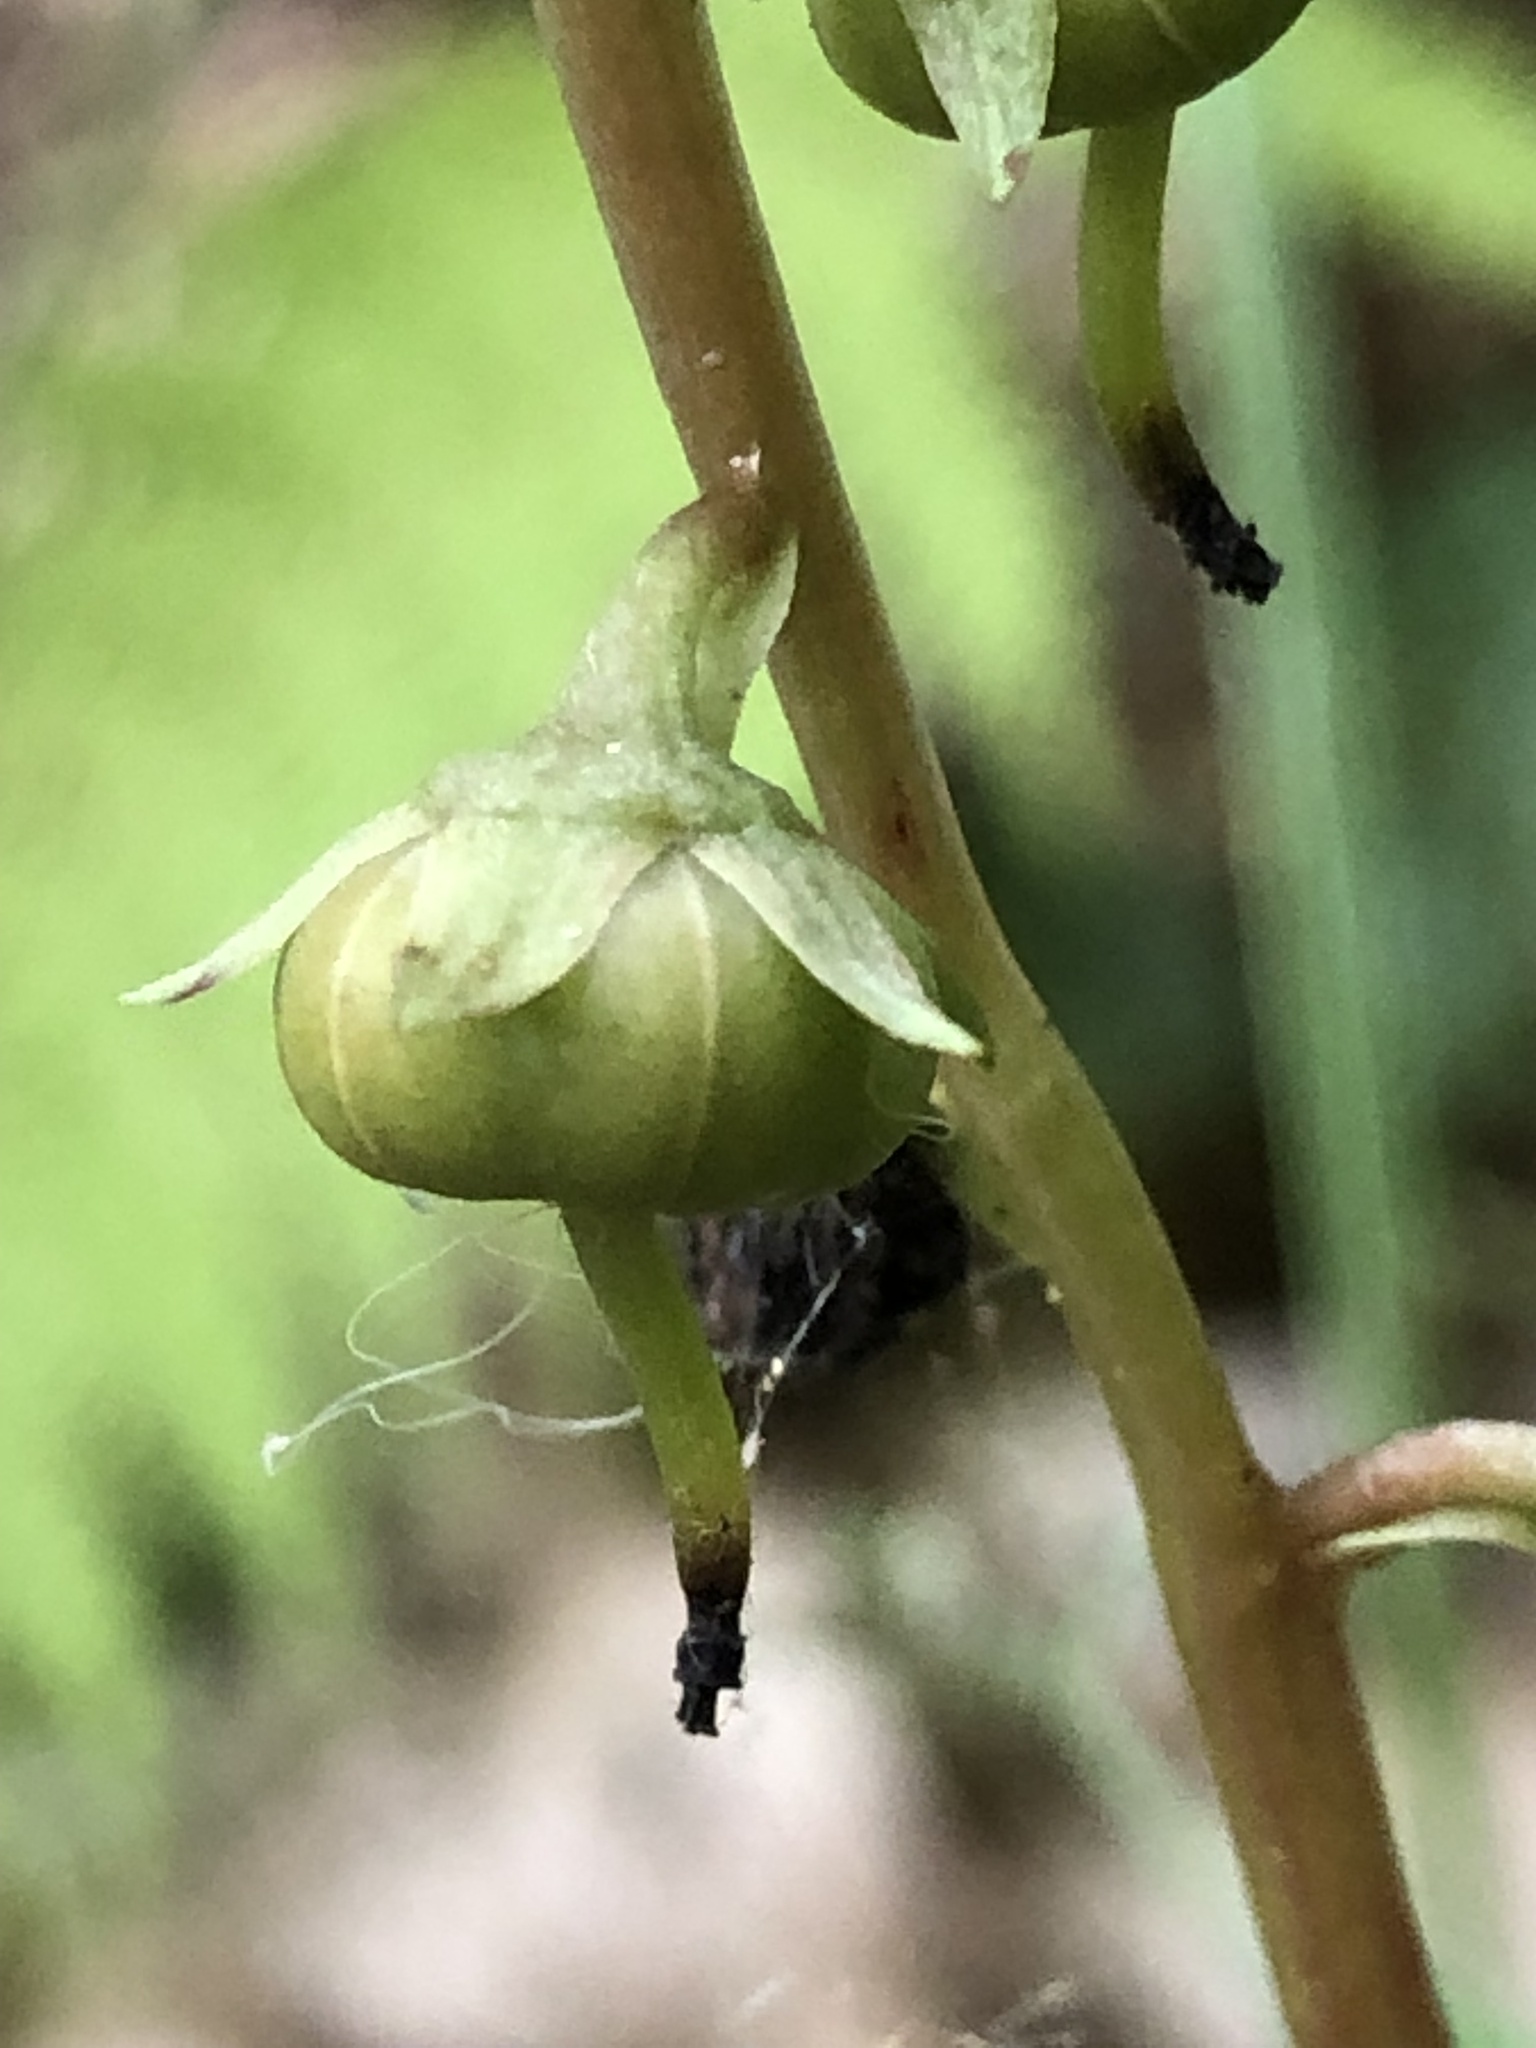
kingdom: Plantae
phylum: Tracheophyta
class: Magnoliopsida
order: Ericales
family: Ericaceae
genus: Pyrola
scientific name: Pyrola americana
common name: American wintergreen
